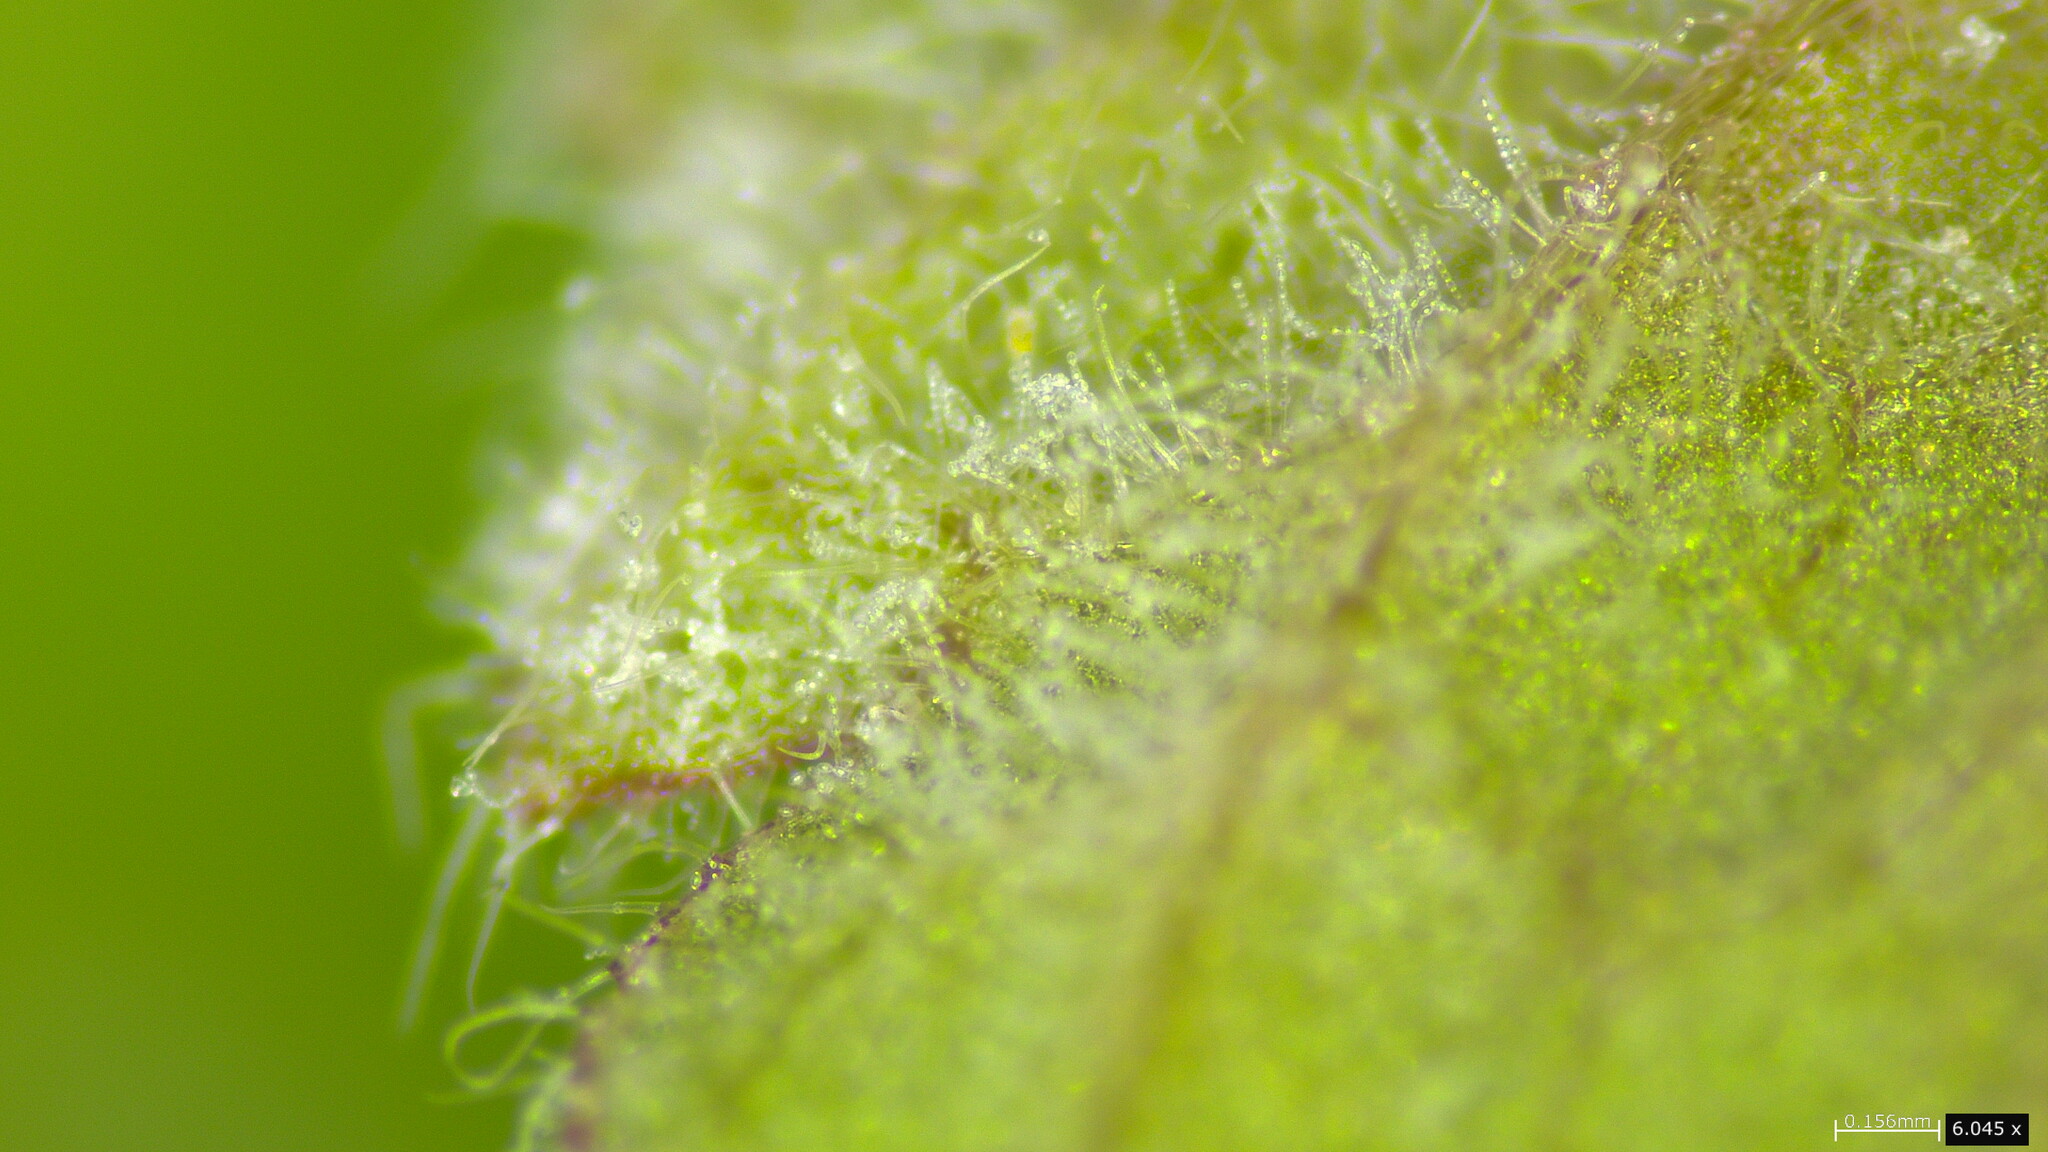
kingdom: Fungi
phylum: Ascomycota
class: Leotiomycetes
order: Helotiales
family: Erysiphaceae
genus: Neoerysiphe
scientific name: Neoerysiphe galeopsidis
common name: Mint mildew
